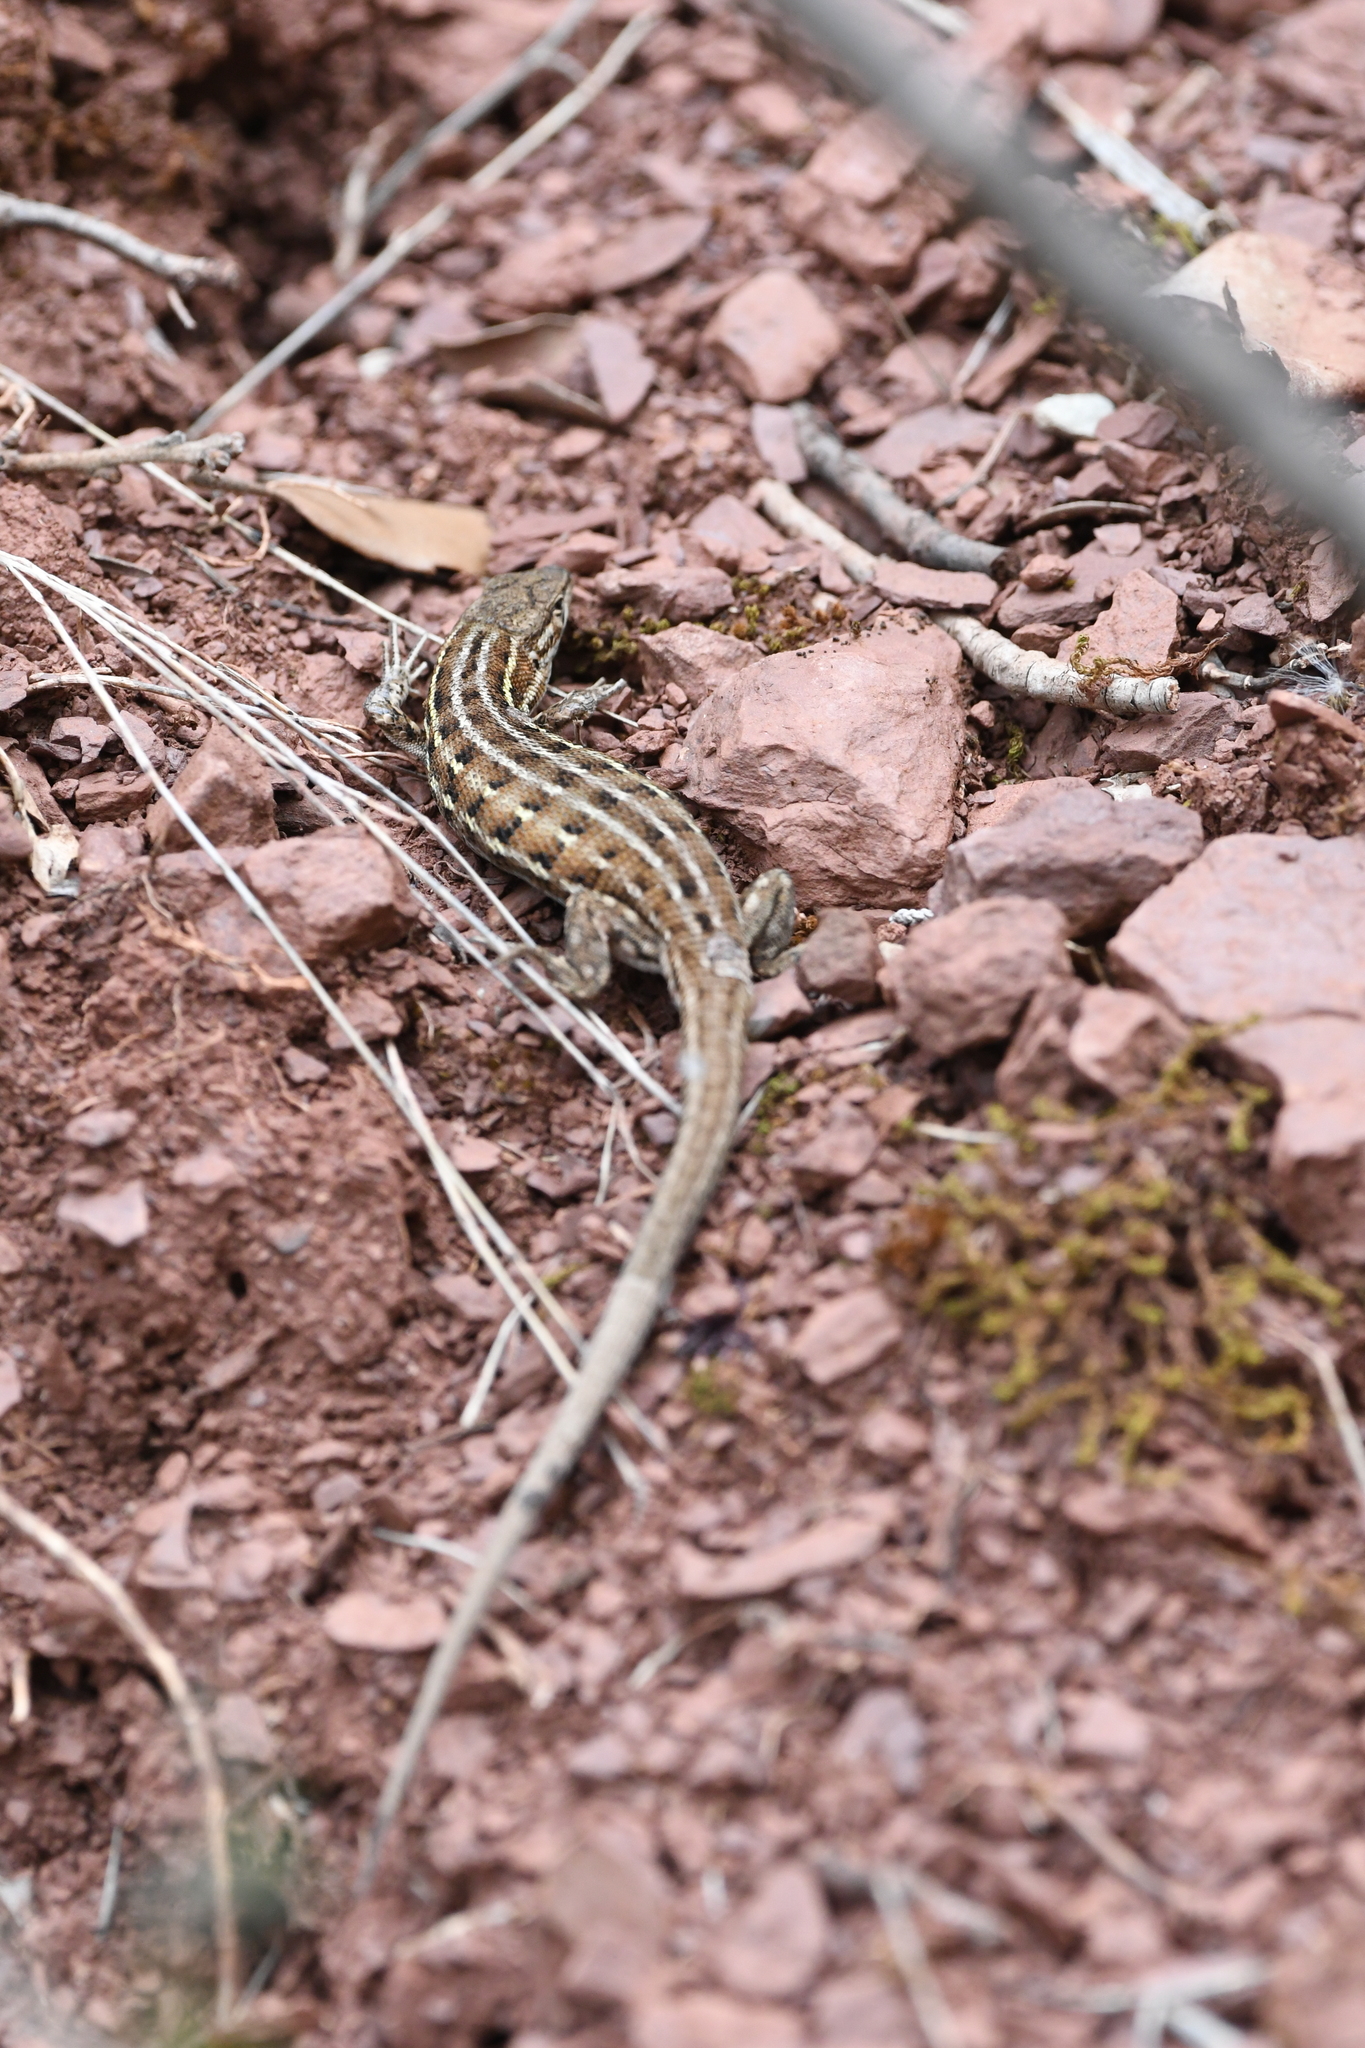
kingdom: Animalia
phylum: Chordata
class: Squamata
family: Lacertidae
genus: Psammodromus
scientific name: Psammodromus edwarsianus
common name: East iberian psammodromus
